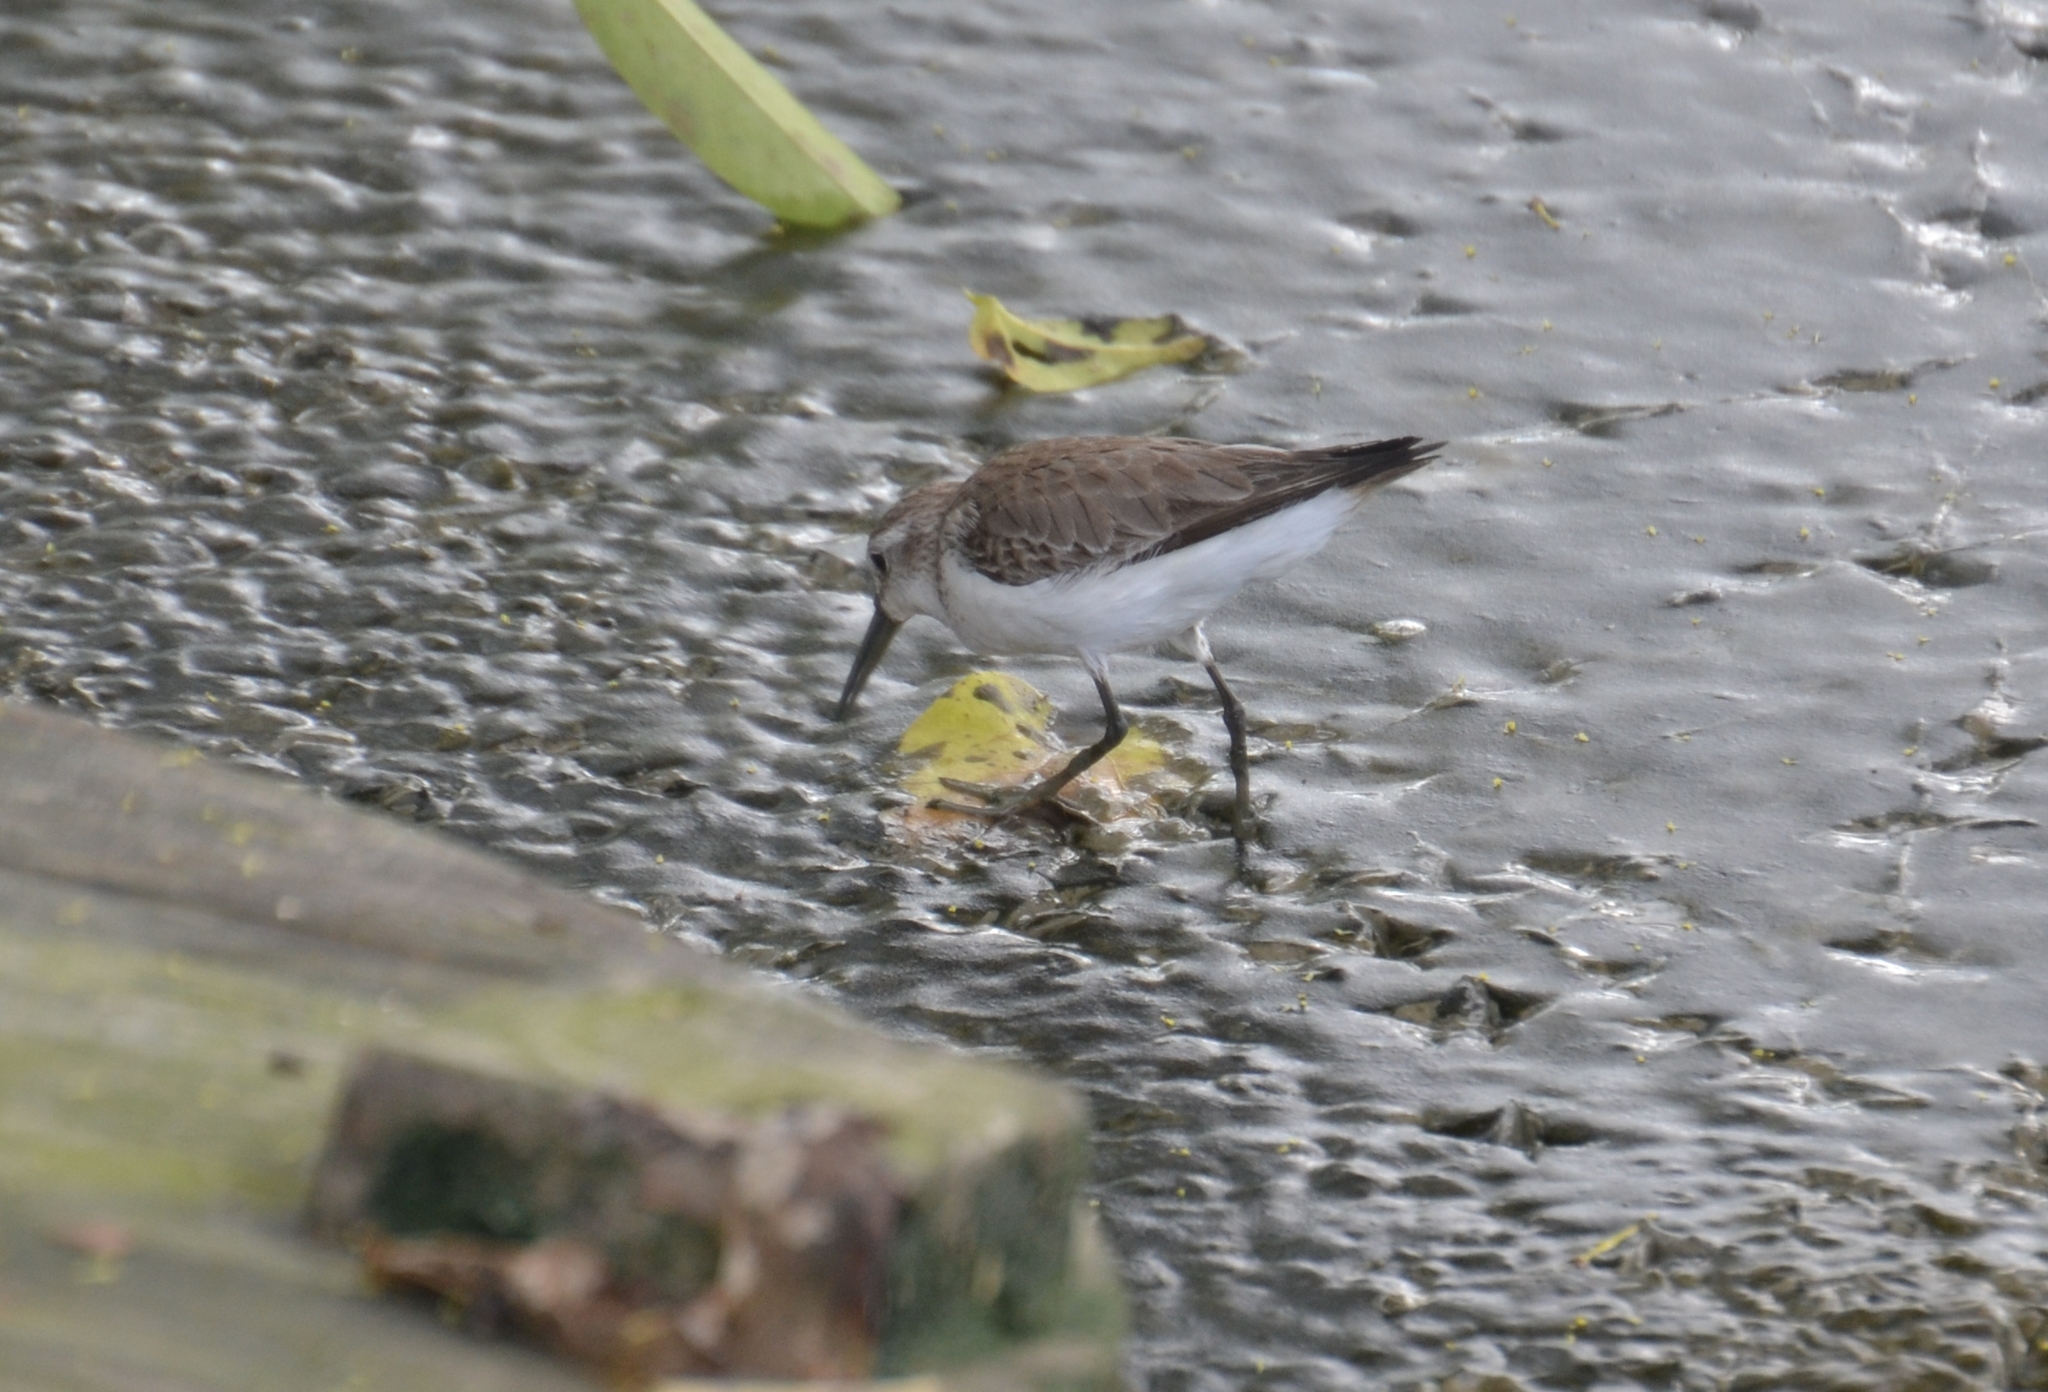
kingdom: Animalia
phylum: Chordata
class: Aves
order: Charadriiformes
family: Scolopacidae
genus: Calidris
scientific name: Calidris mauri
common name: Western sandpiper
